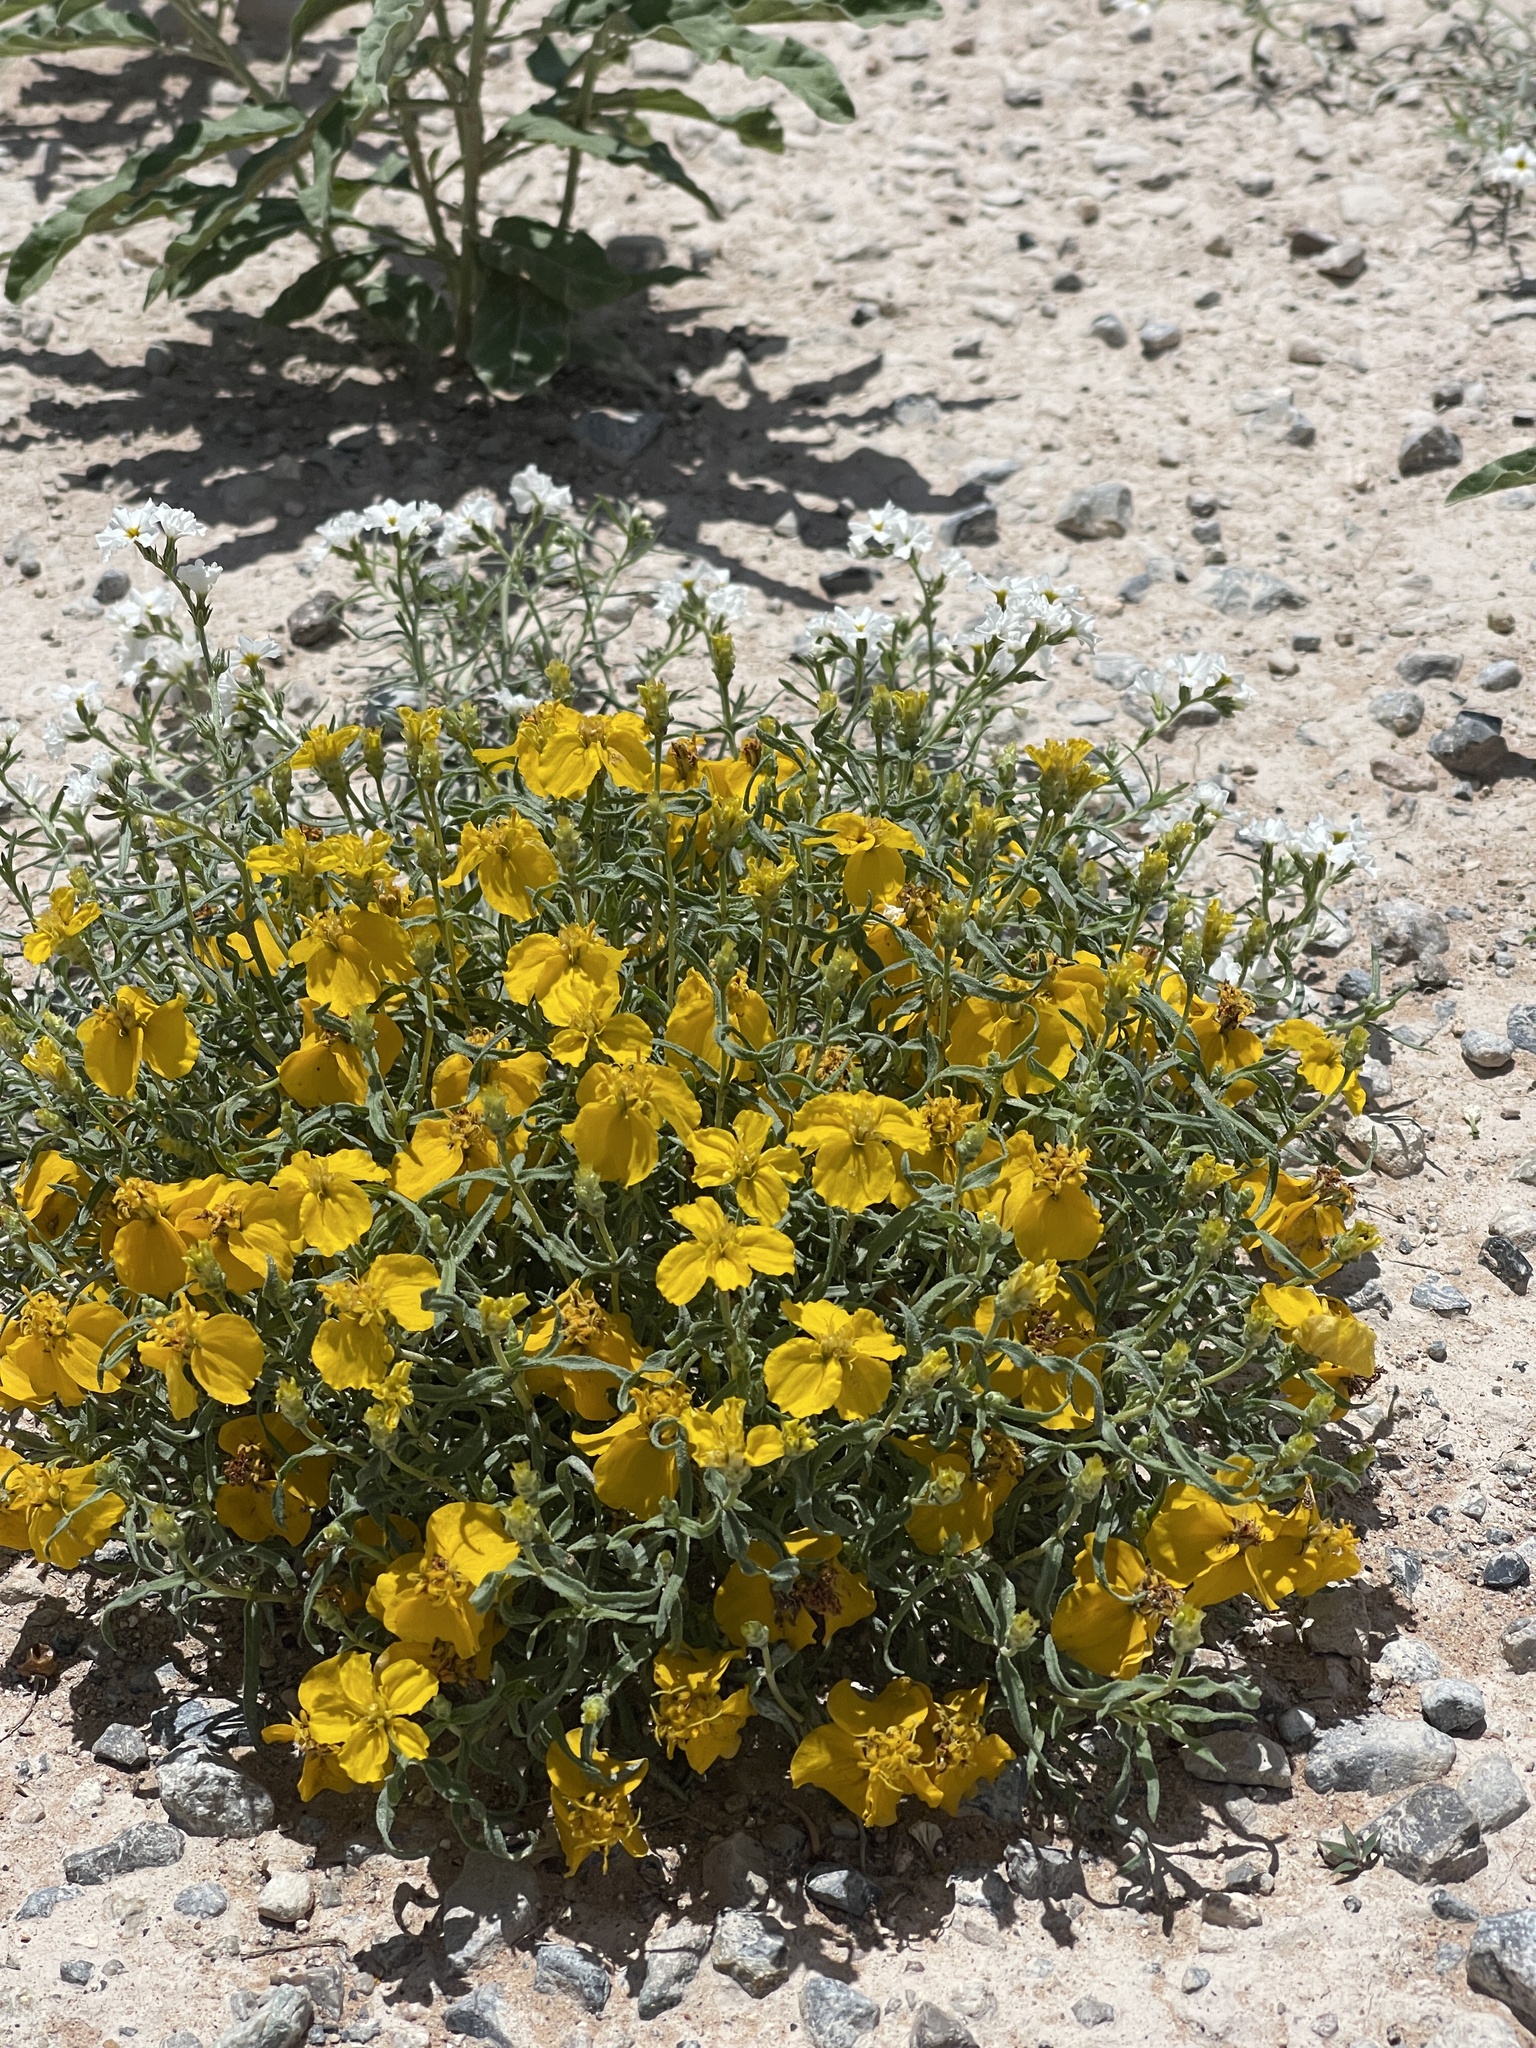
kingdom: Plantae
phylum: Tracheophyta
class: Magnoliopsida
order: Asterales
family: Asteraceae
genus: Zinnia
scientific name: Zinnia grandiflora
